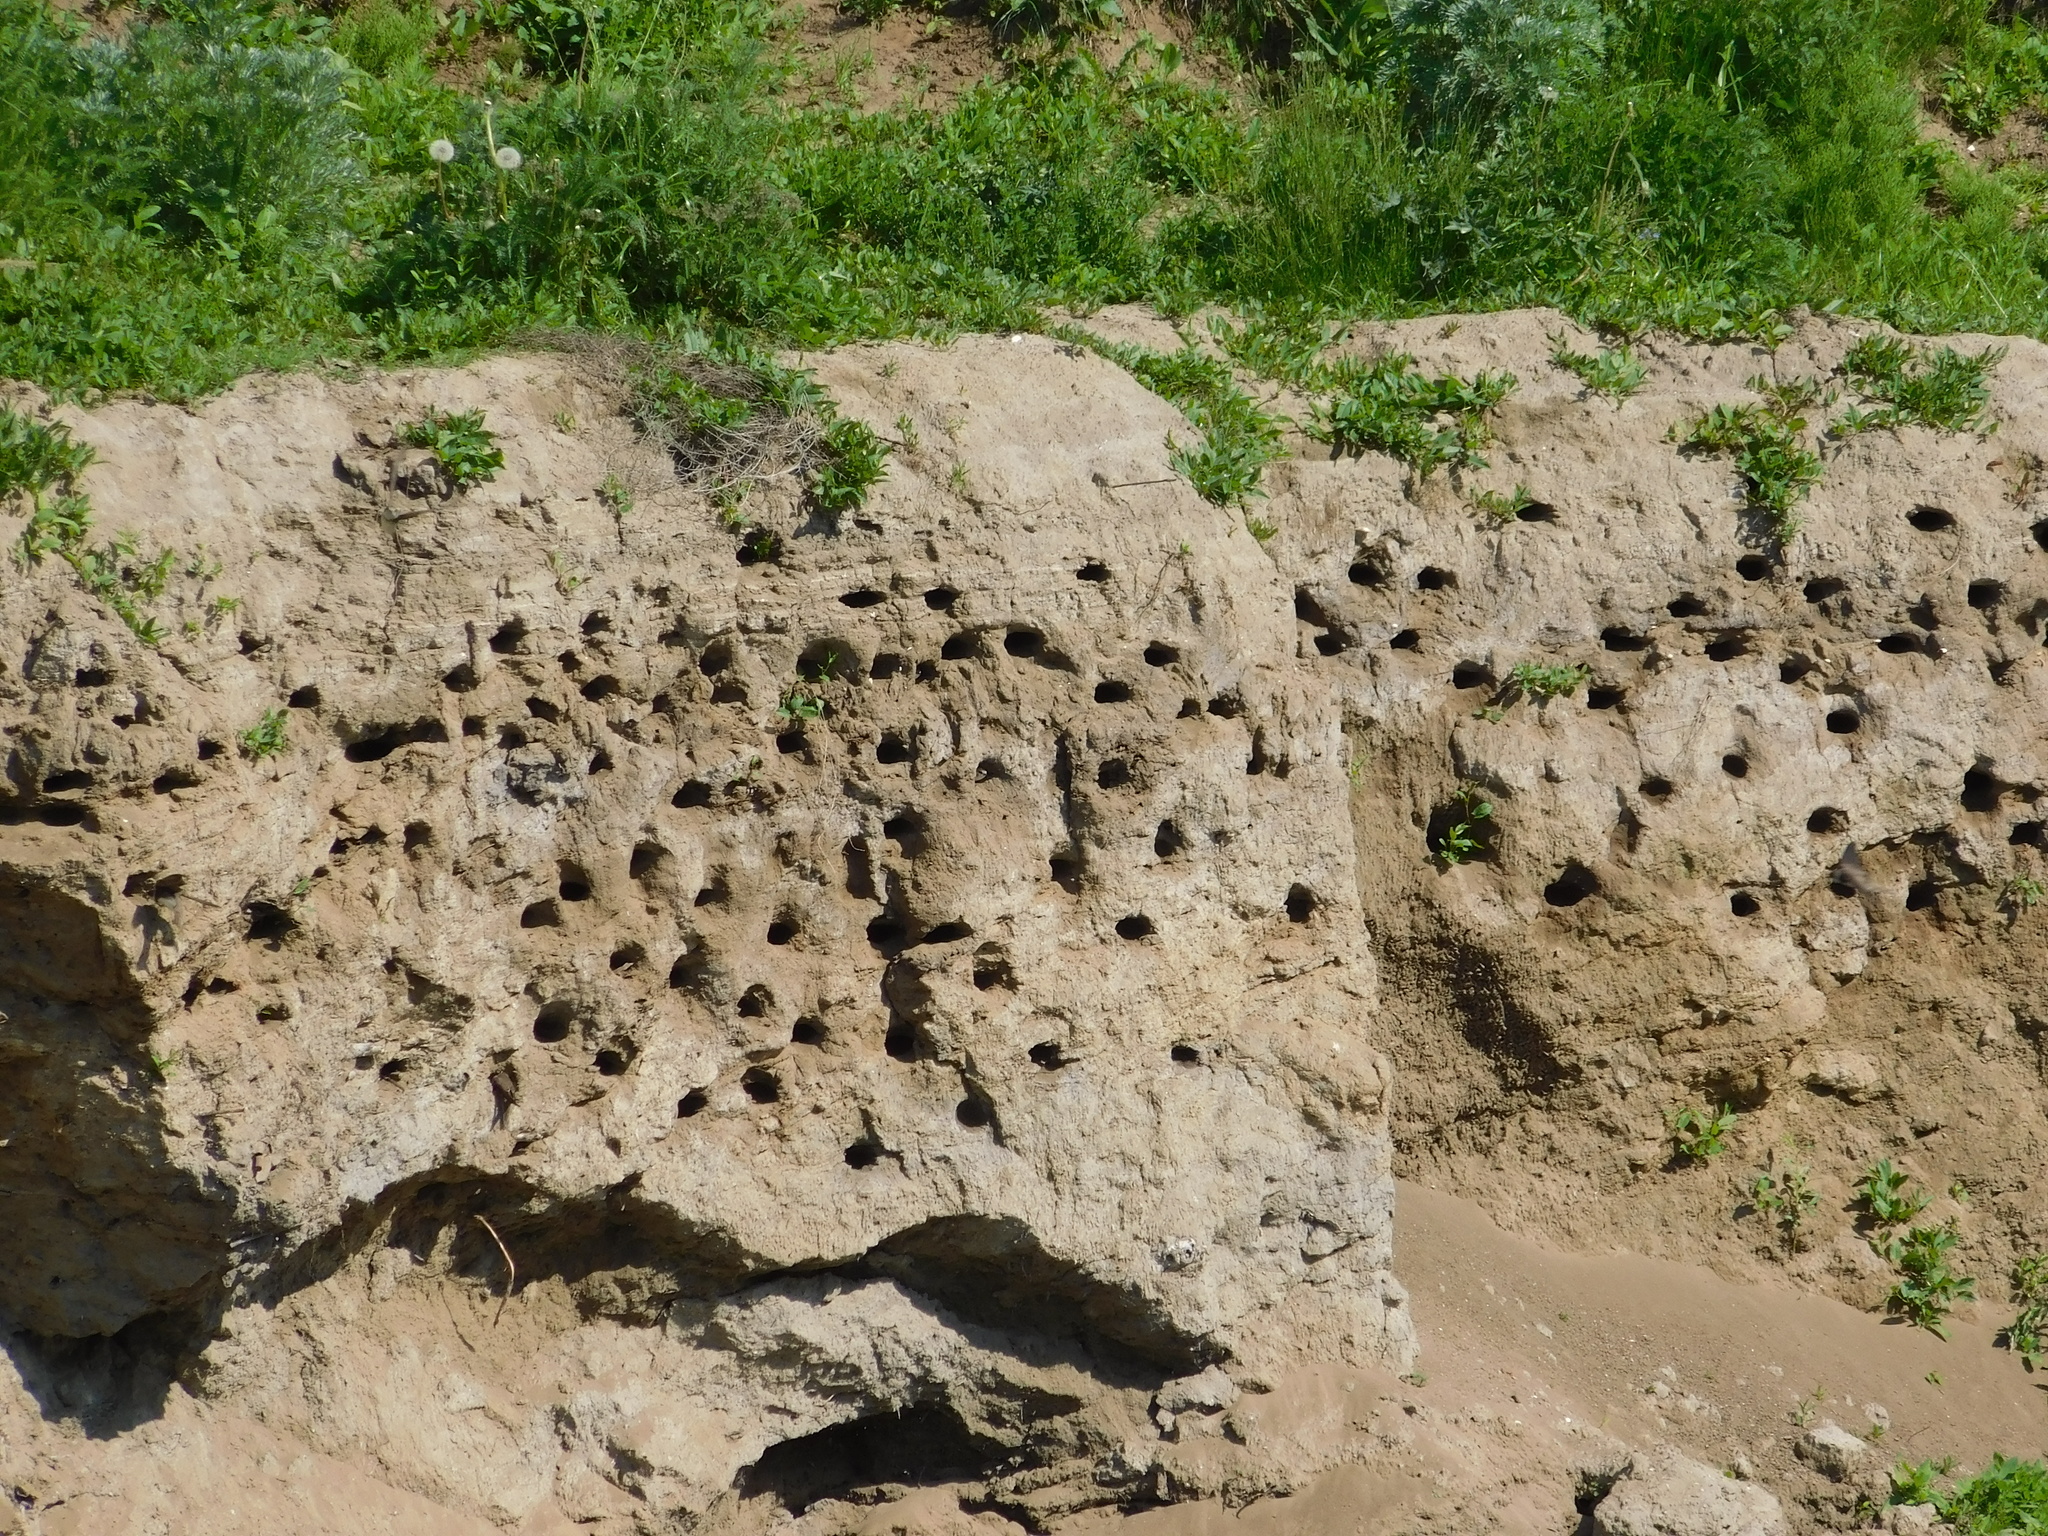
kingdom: Animalia
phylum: Chordata
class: Aves
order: Passeriformes
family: Hirundinidae
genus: Riparia
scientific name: Riparia riparia
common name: Sand martin
